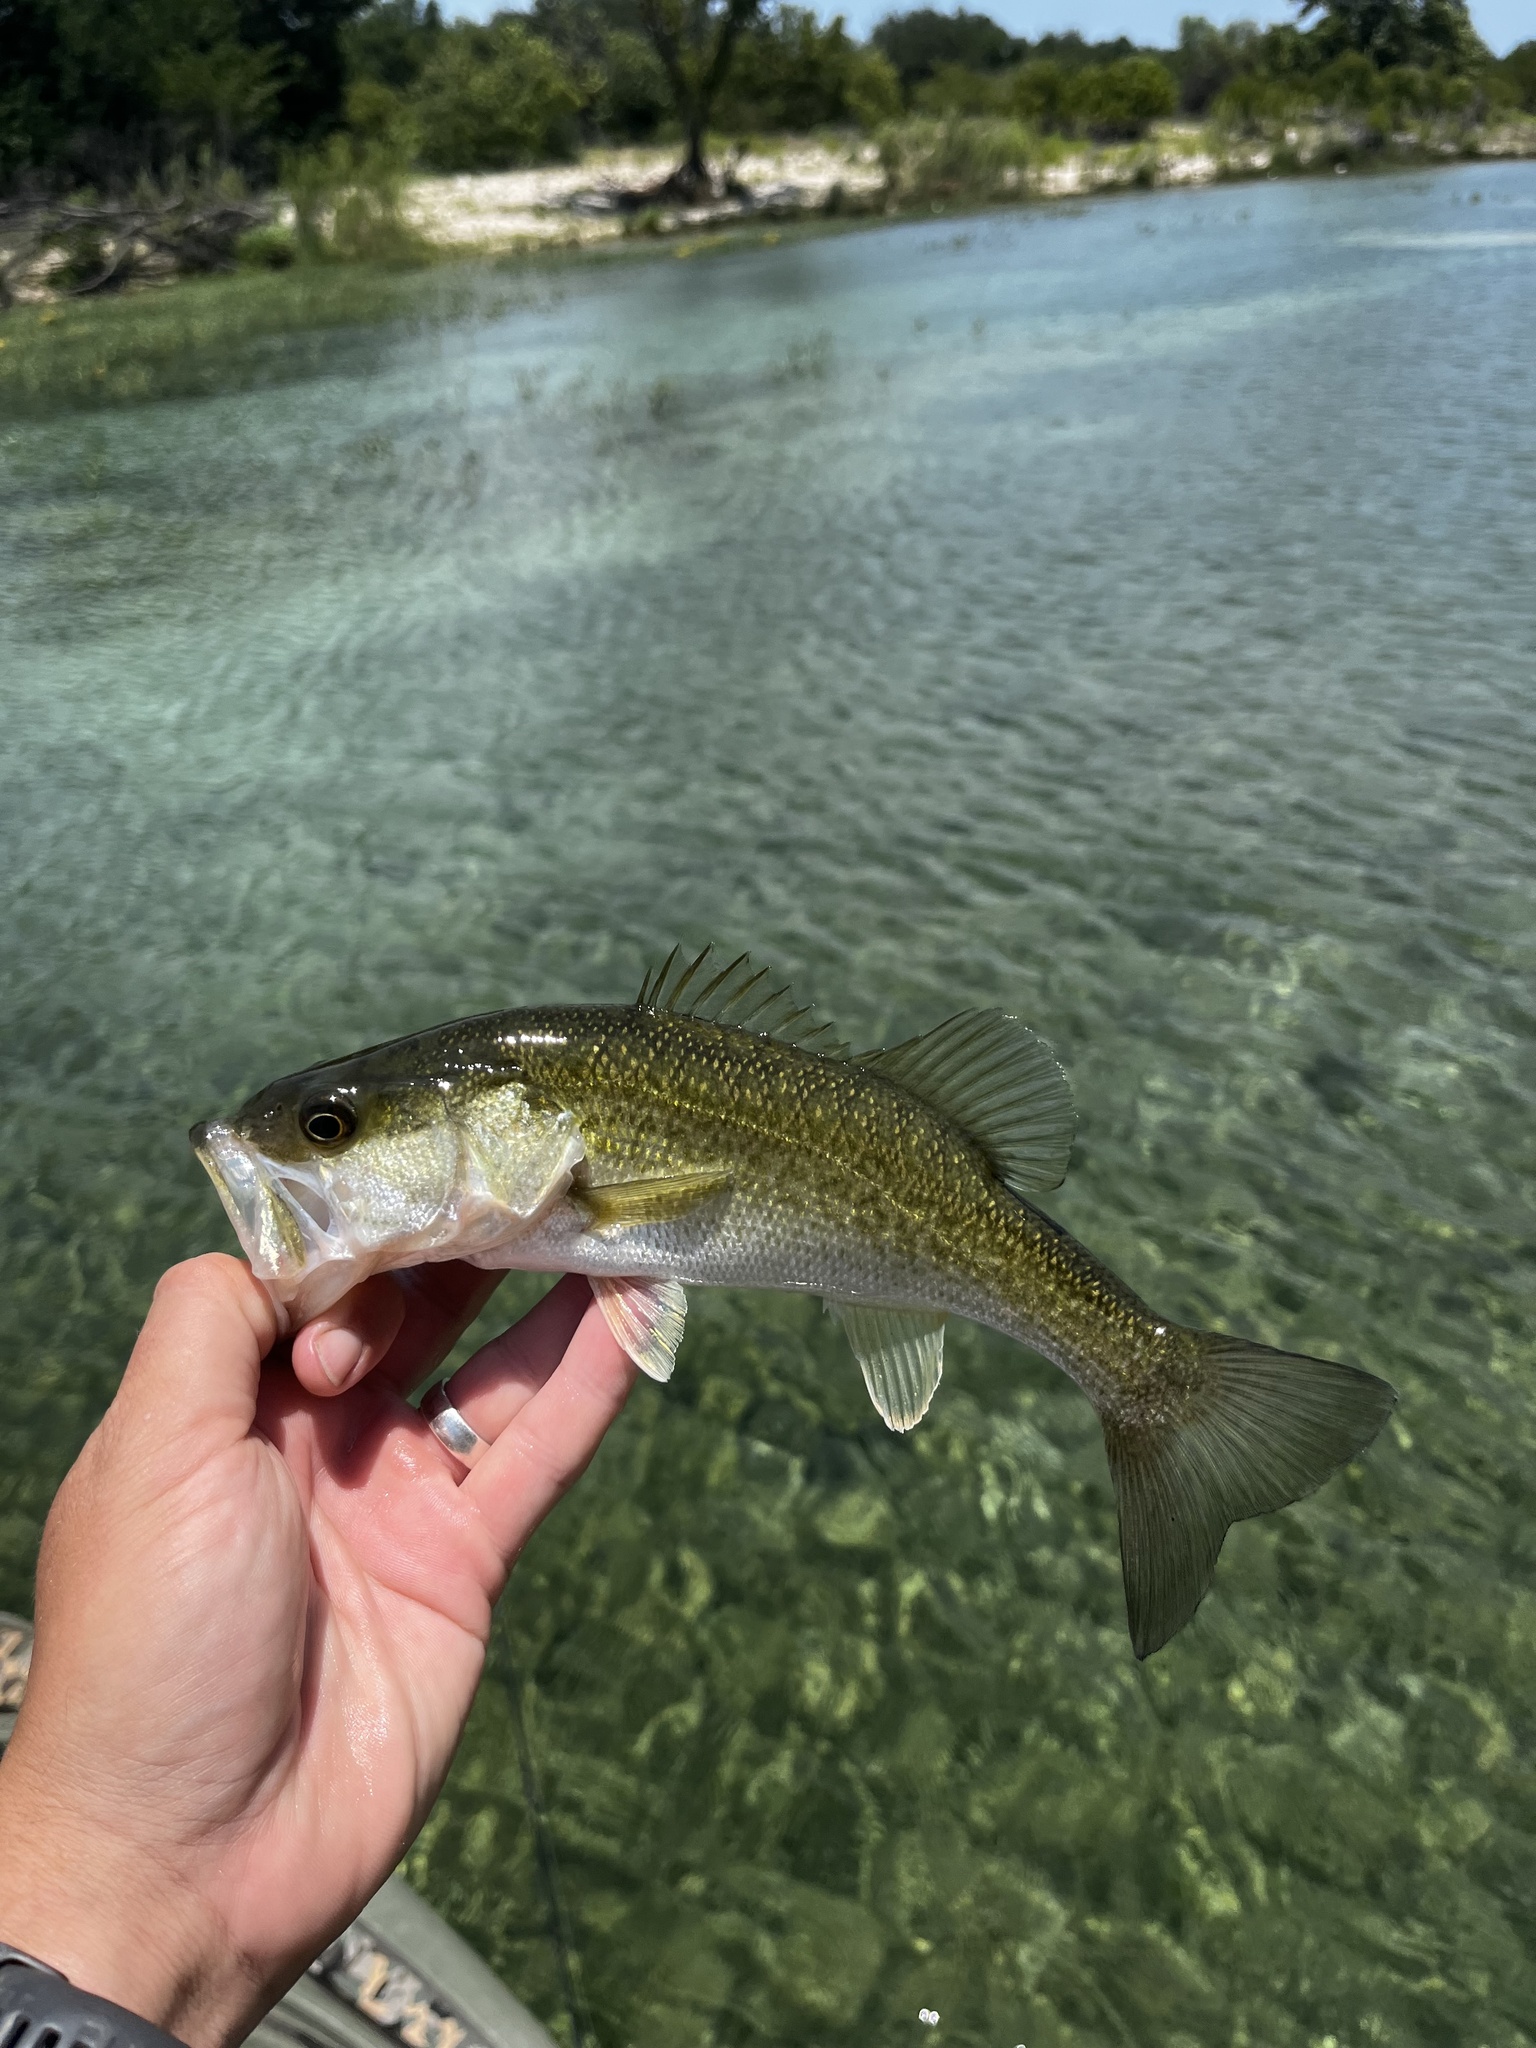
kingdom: Animalia
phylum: Chordata
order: Perciformes
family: Centrarchidae
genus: Micropterus
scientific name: Micropterus
